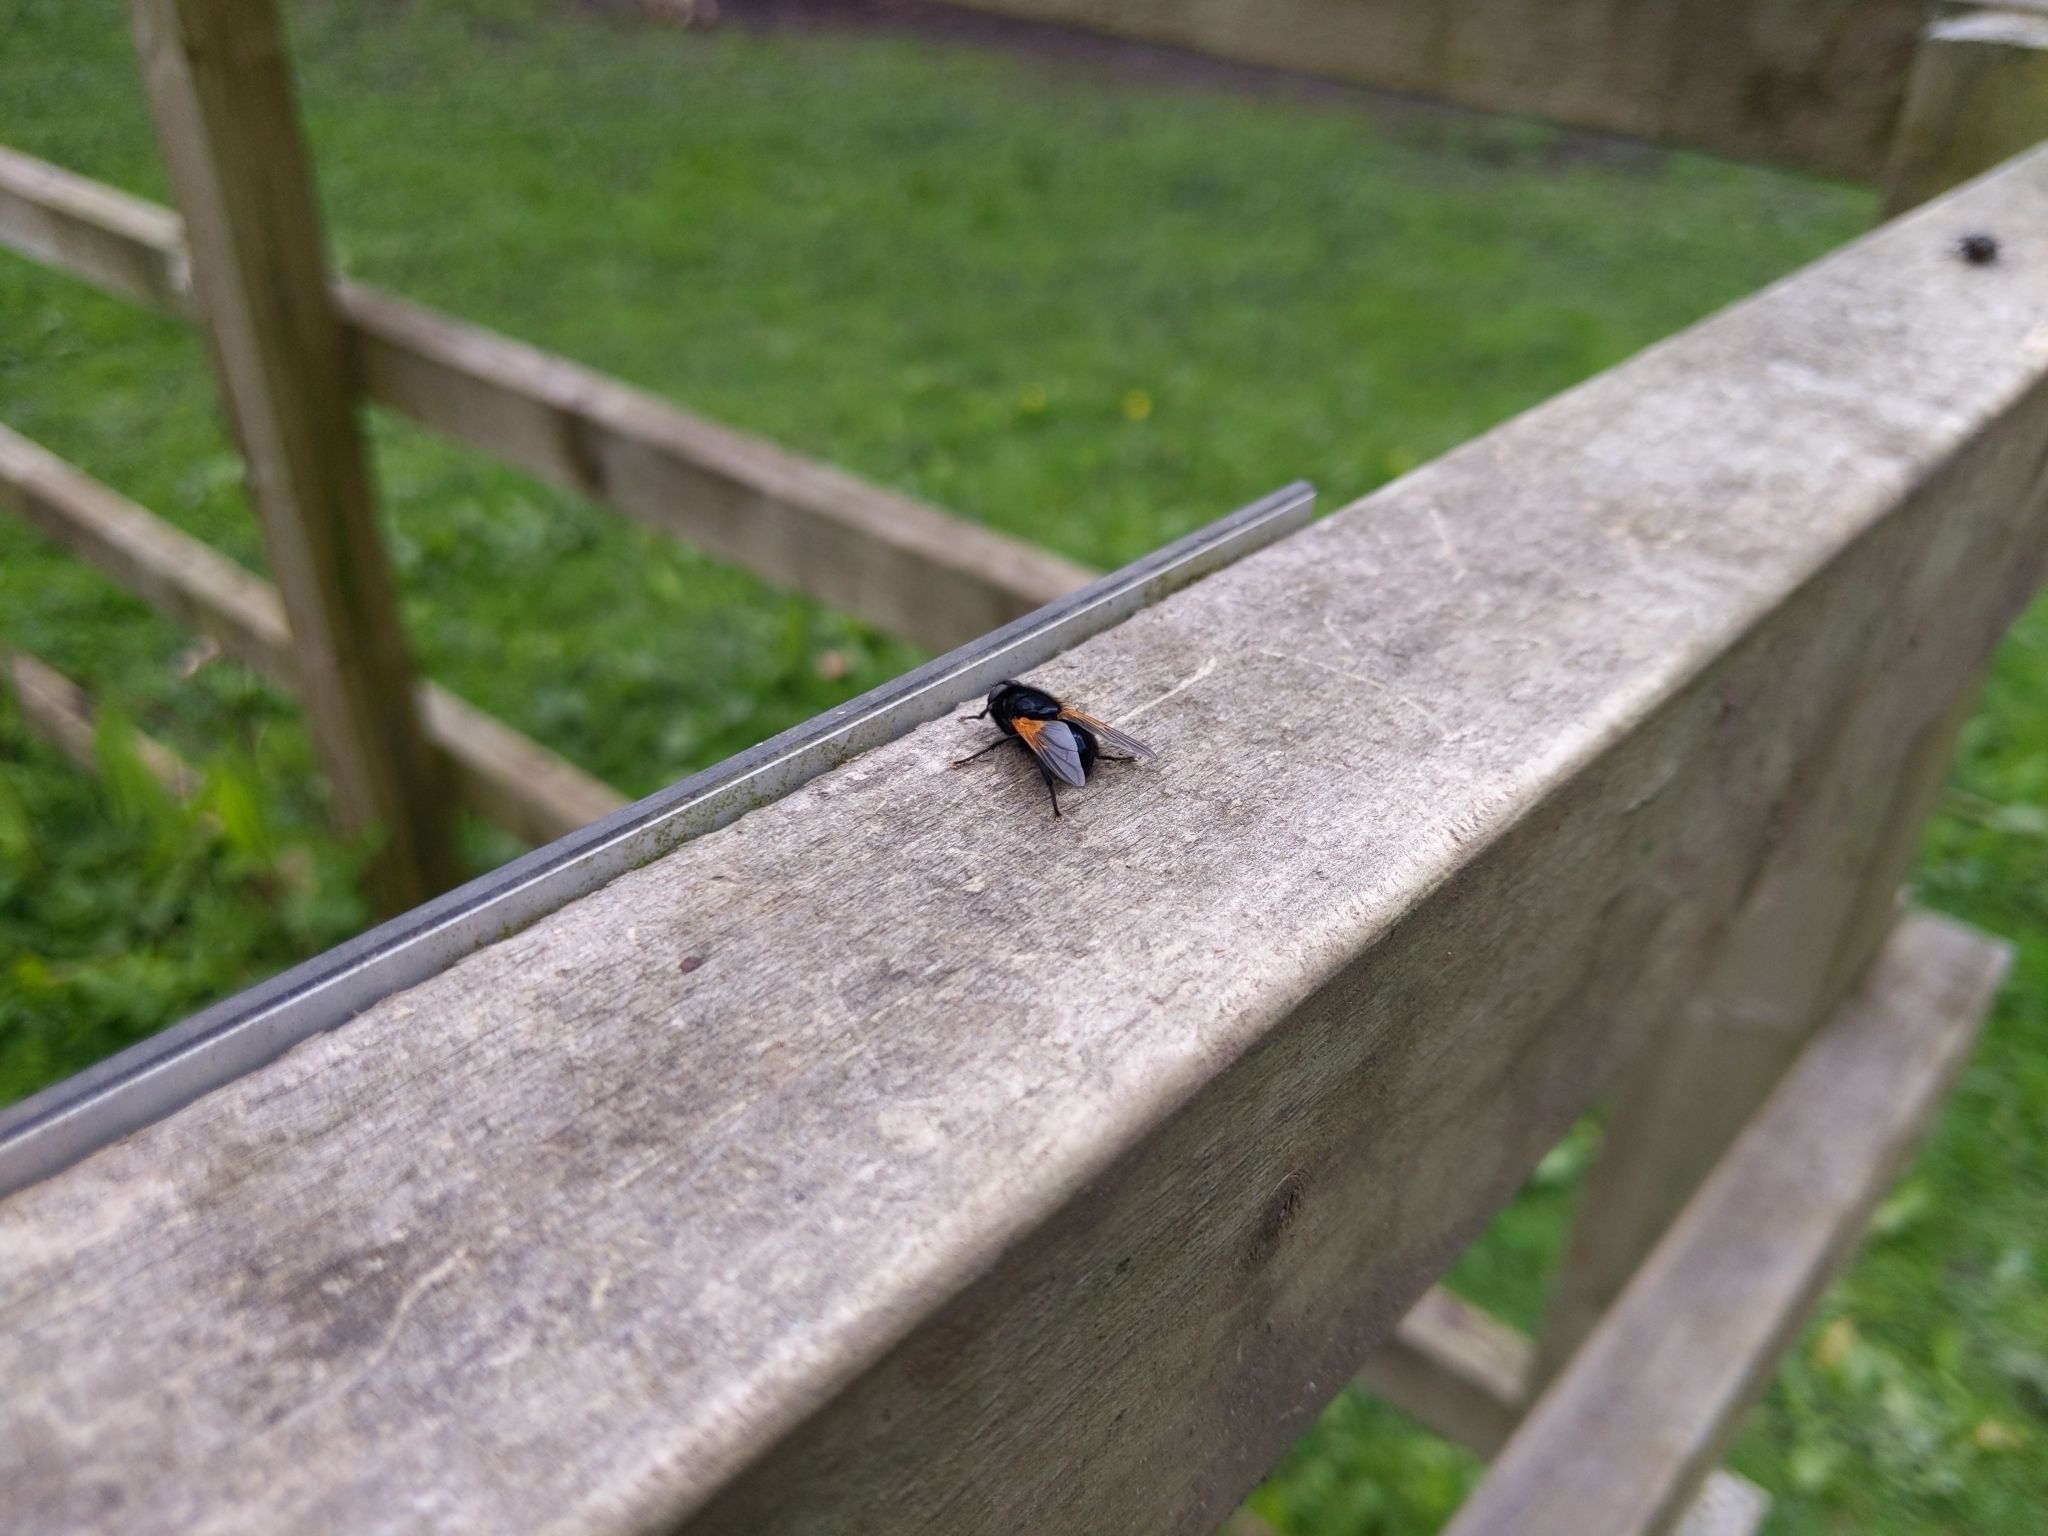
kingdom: Animalia
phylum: Arthropoda
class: Insecta
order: Diptera
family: Muscidae
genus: Mesembrina
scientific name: Mesembrina meridiana
